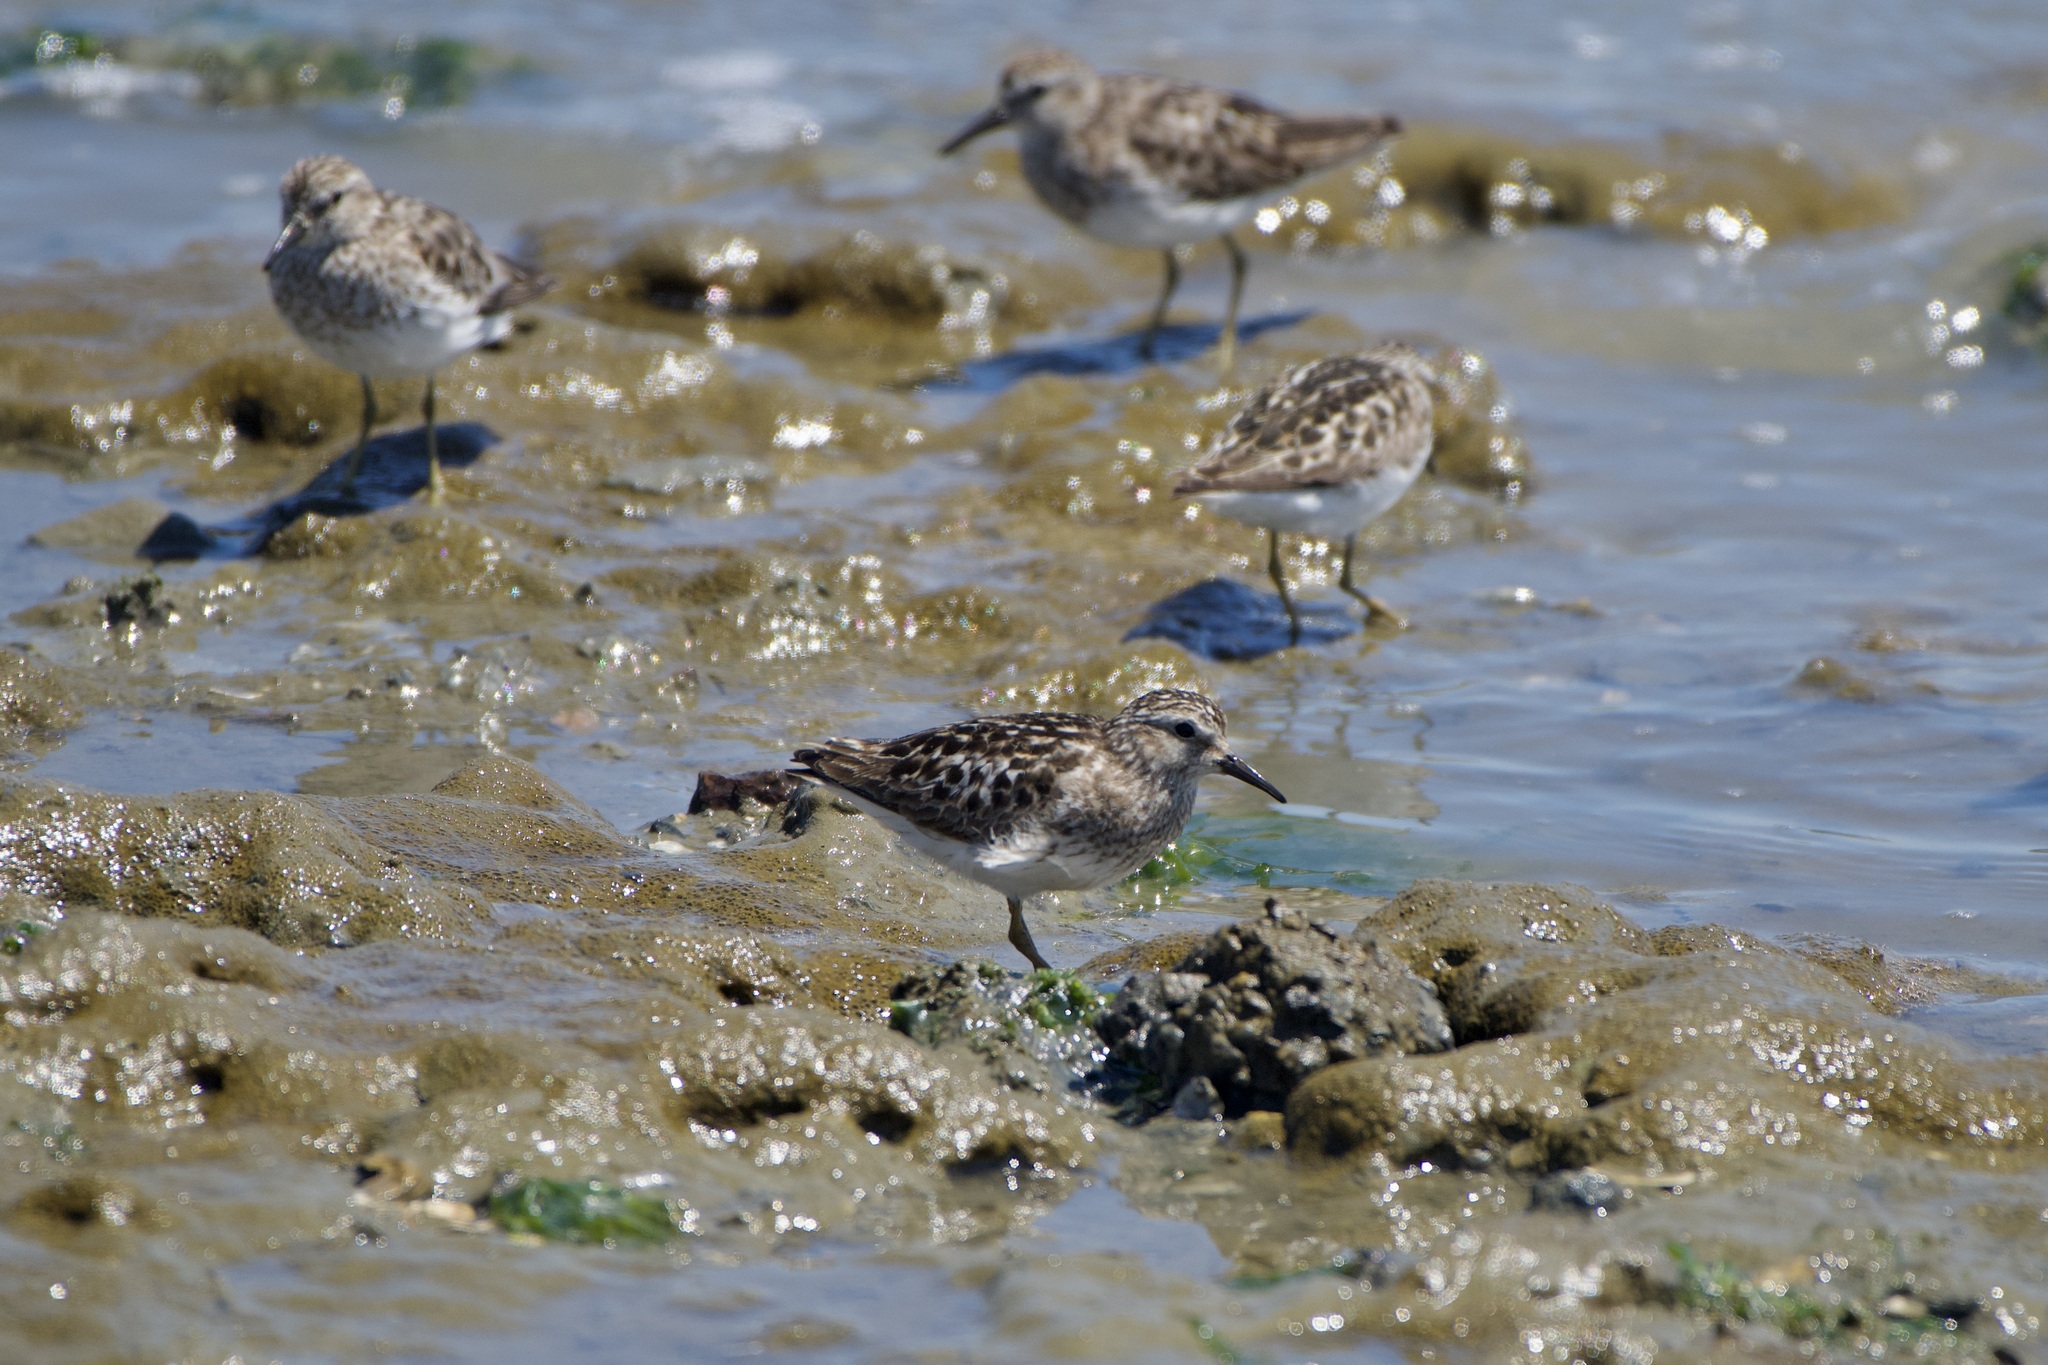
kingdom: Animalia
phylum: Chordata
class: Aves
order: Charadriiformes
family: Scolopacidae
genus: Calidris
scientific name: Calidris minutilla
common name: Least sandpiper
